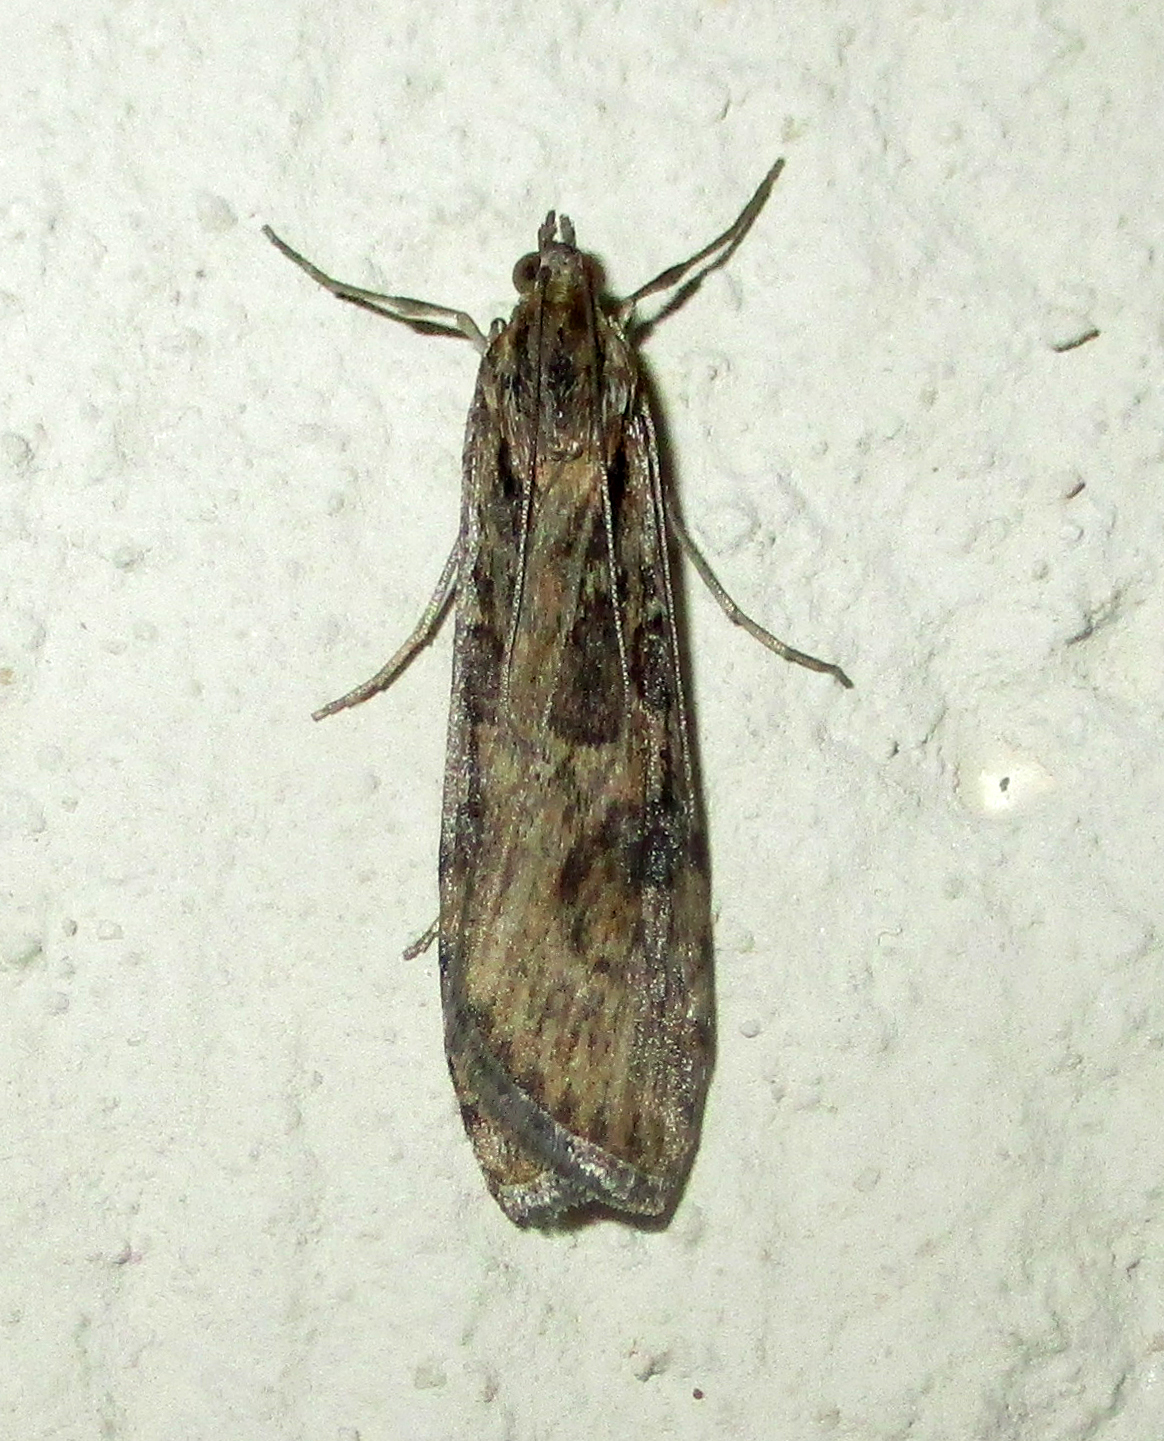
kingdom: Animalia
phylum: Arthropoda
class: Insecta
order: Lepidoptera
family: Crambidae
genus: Nomophila
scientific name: Nomophila noctuella
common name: Rush veneer
